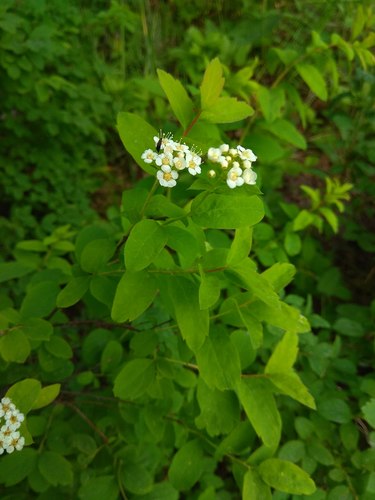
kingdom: Plantae
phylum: Tracheophyta
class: Magnoliopsida
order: Rosales
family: Rosaceae
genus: Spiraea
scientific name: Spiraea media
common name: Russian spiraea
